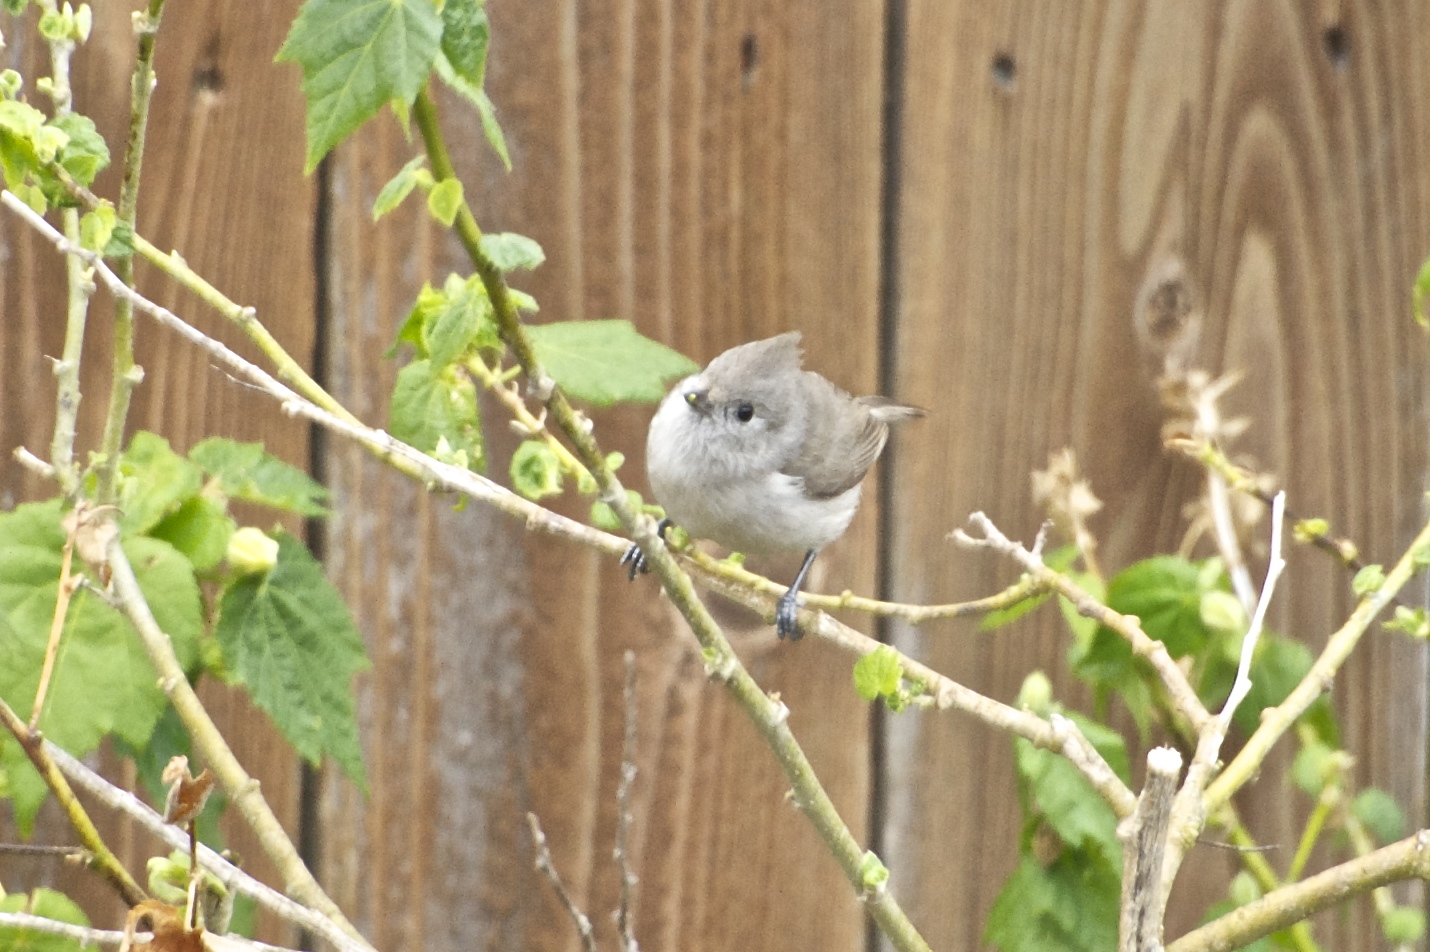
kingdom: Animalia
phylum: Chordata
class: Aves
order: Passeriformes
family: Paridae
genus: Baeolophus
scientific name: Baeolophus inornatus
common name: Oak titmouse
